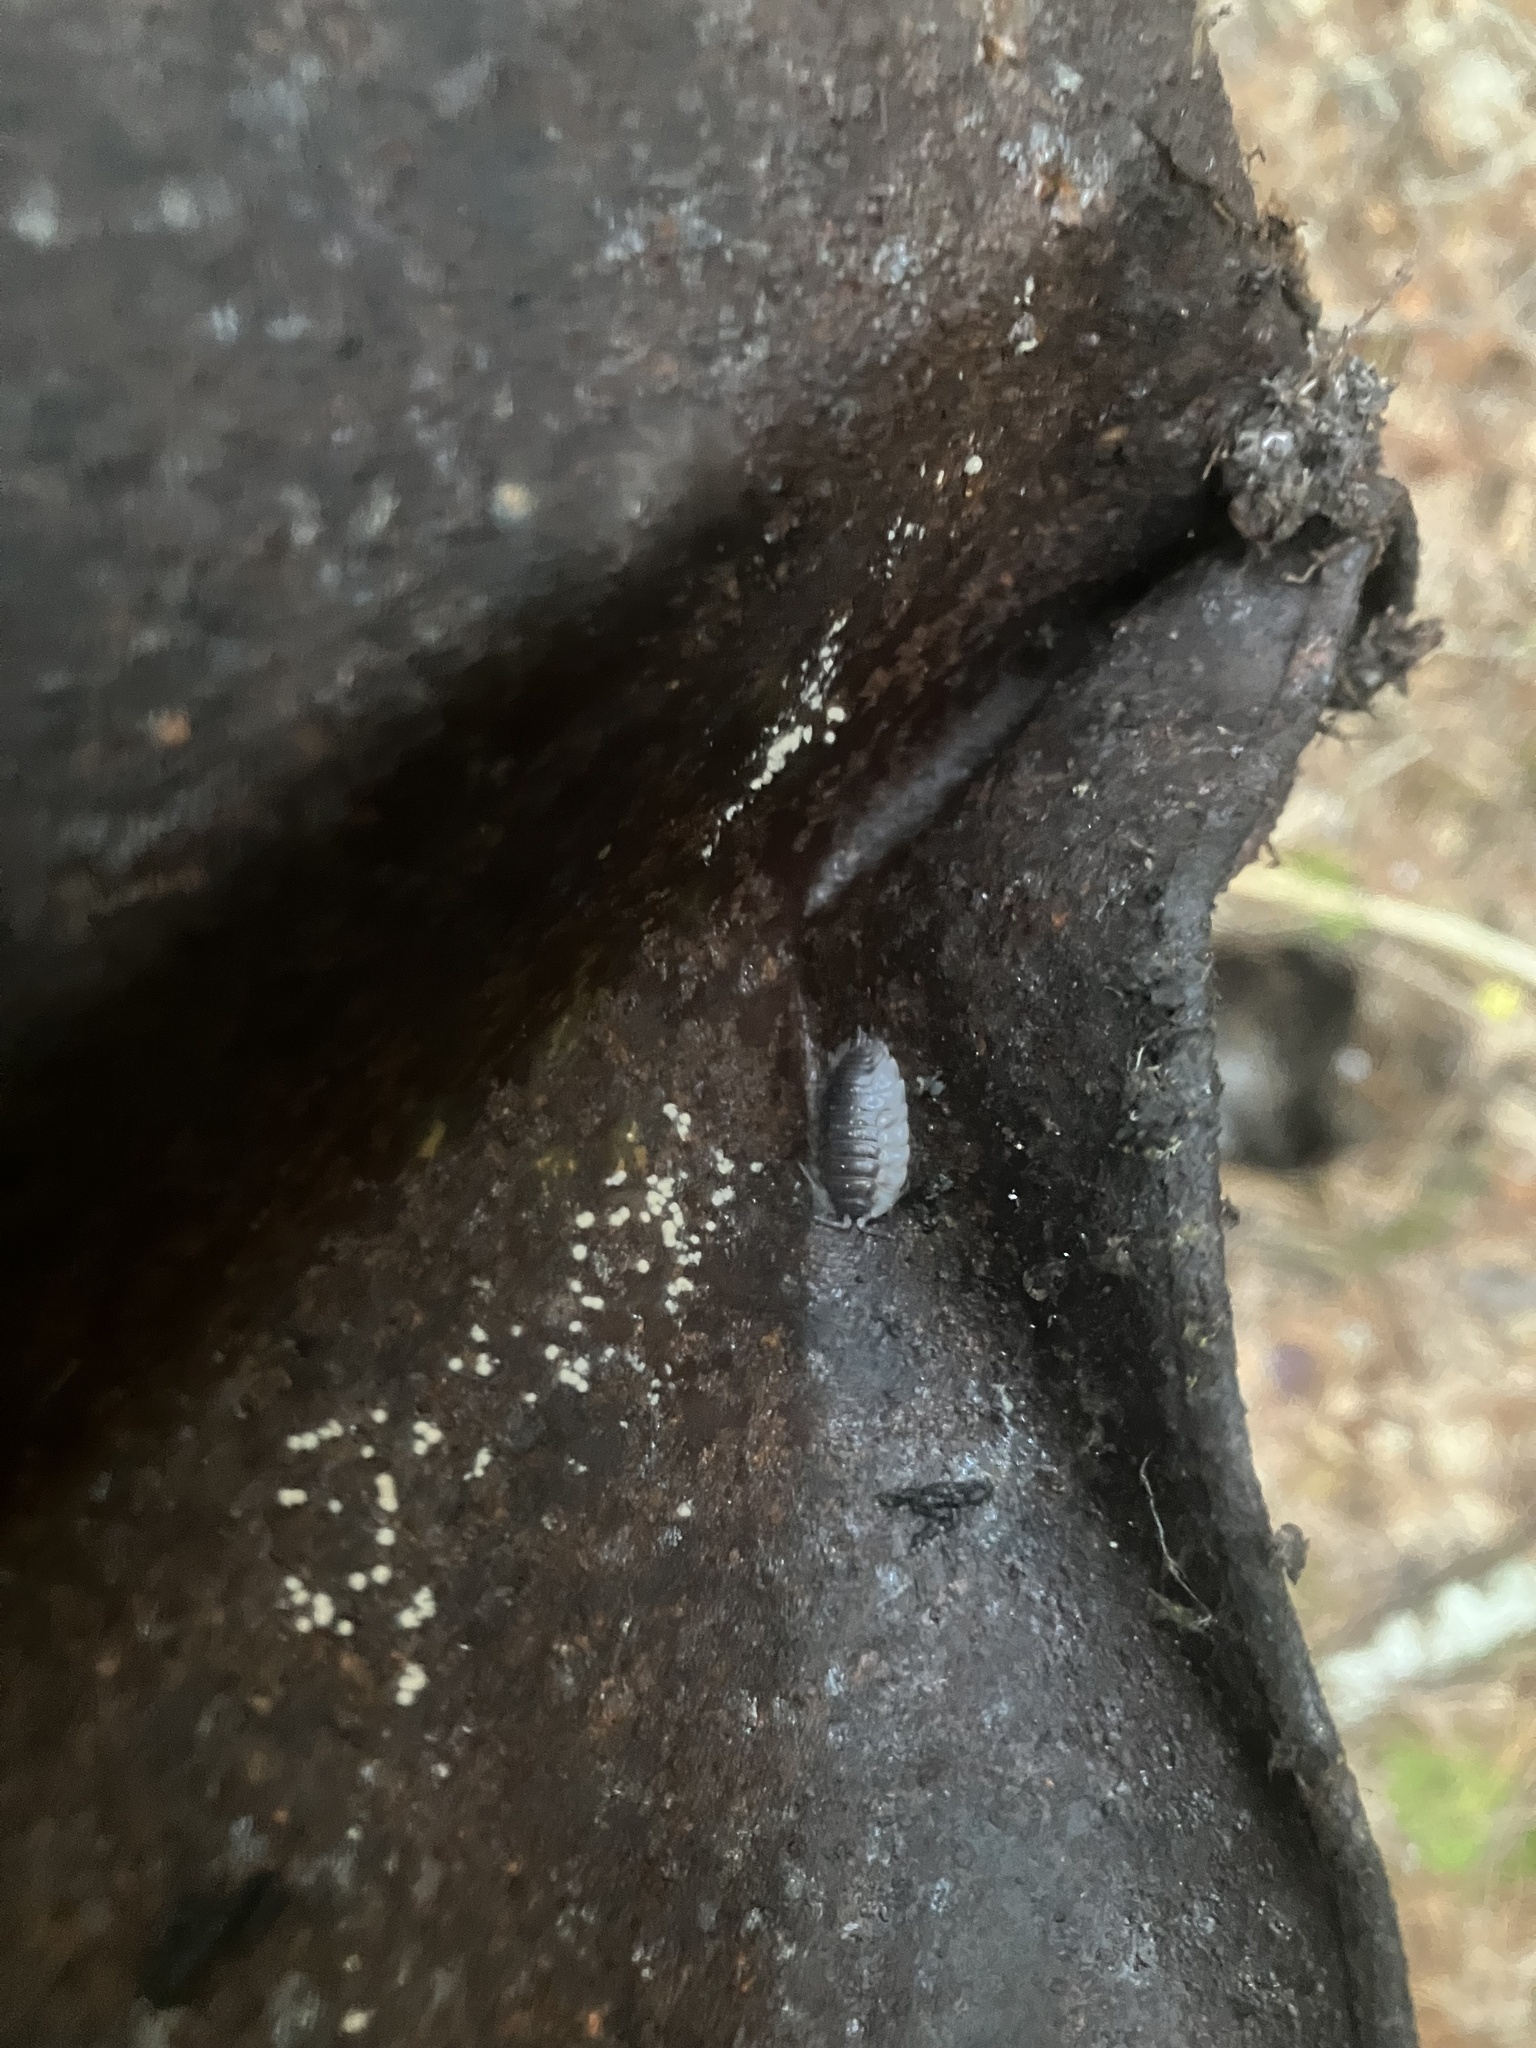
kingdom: Animalia
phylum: Arthropoda
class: Malacostraca
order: Isopoda
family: Oniscidae
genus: Oniscus
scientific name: Oniscus asellus
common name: Common shiny woodlouse
